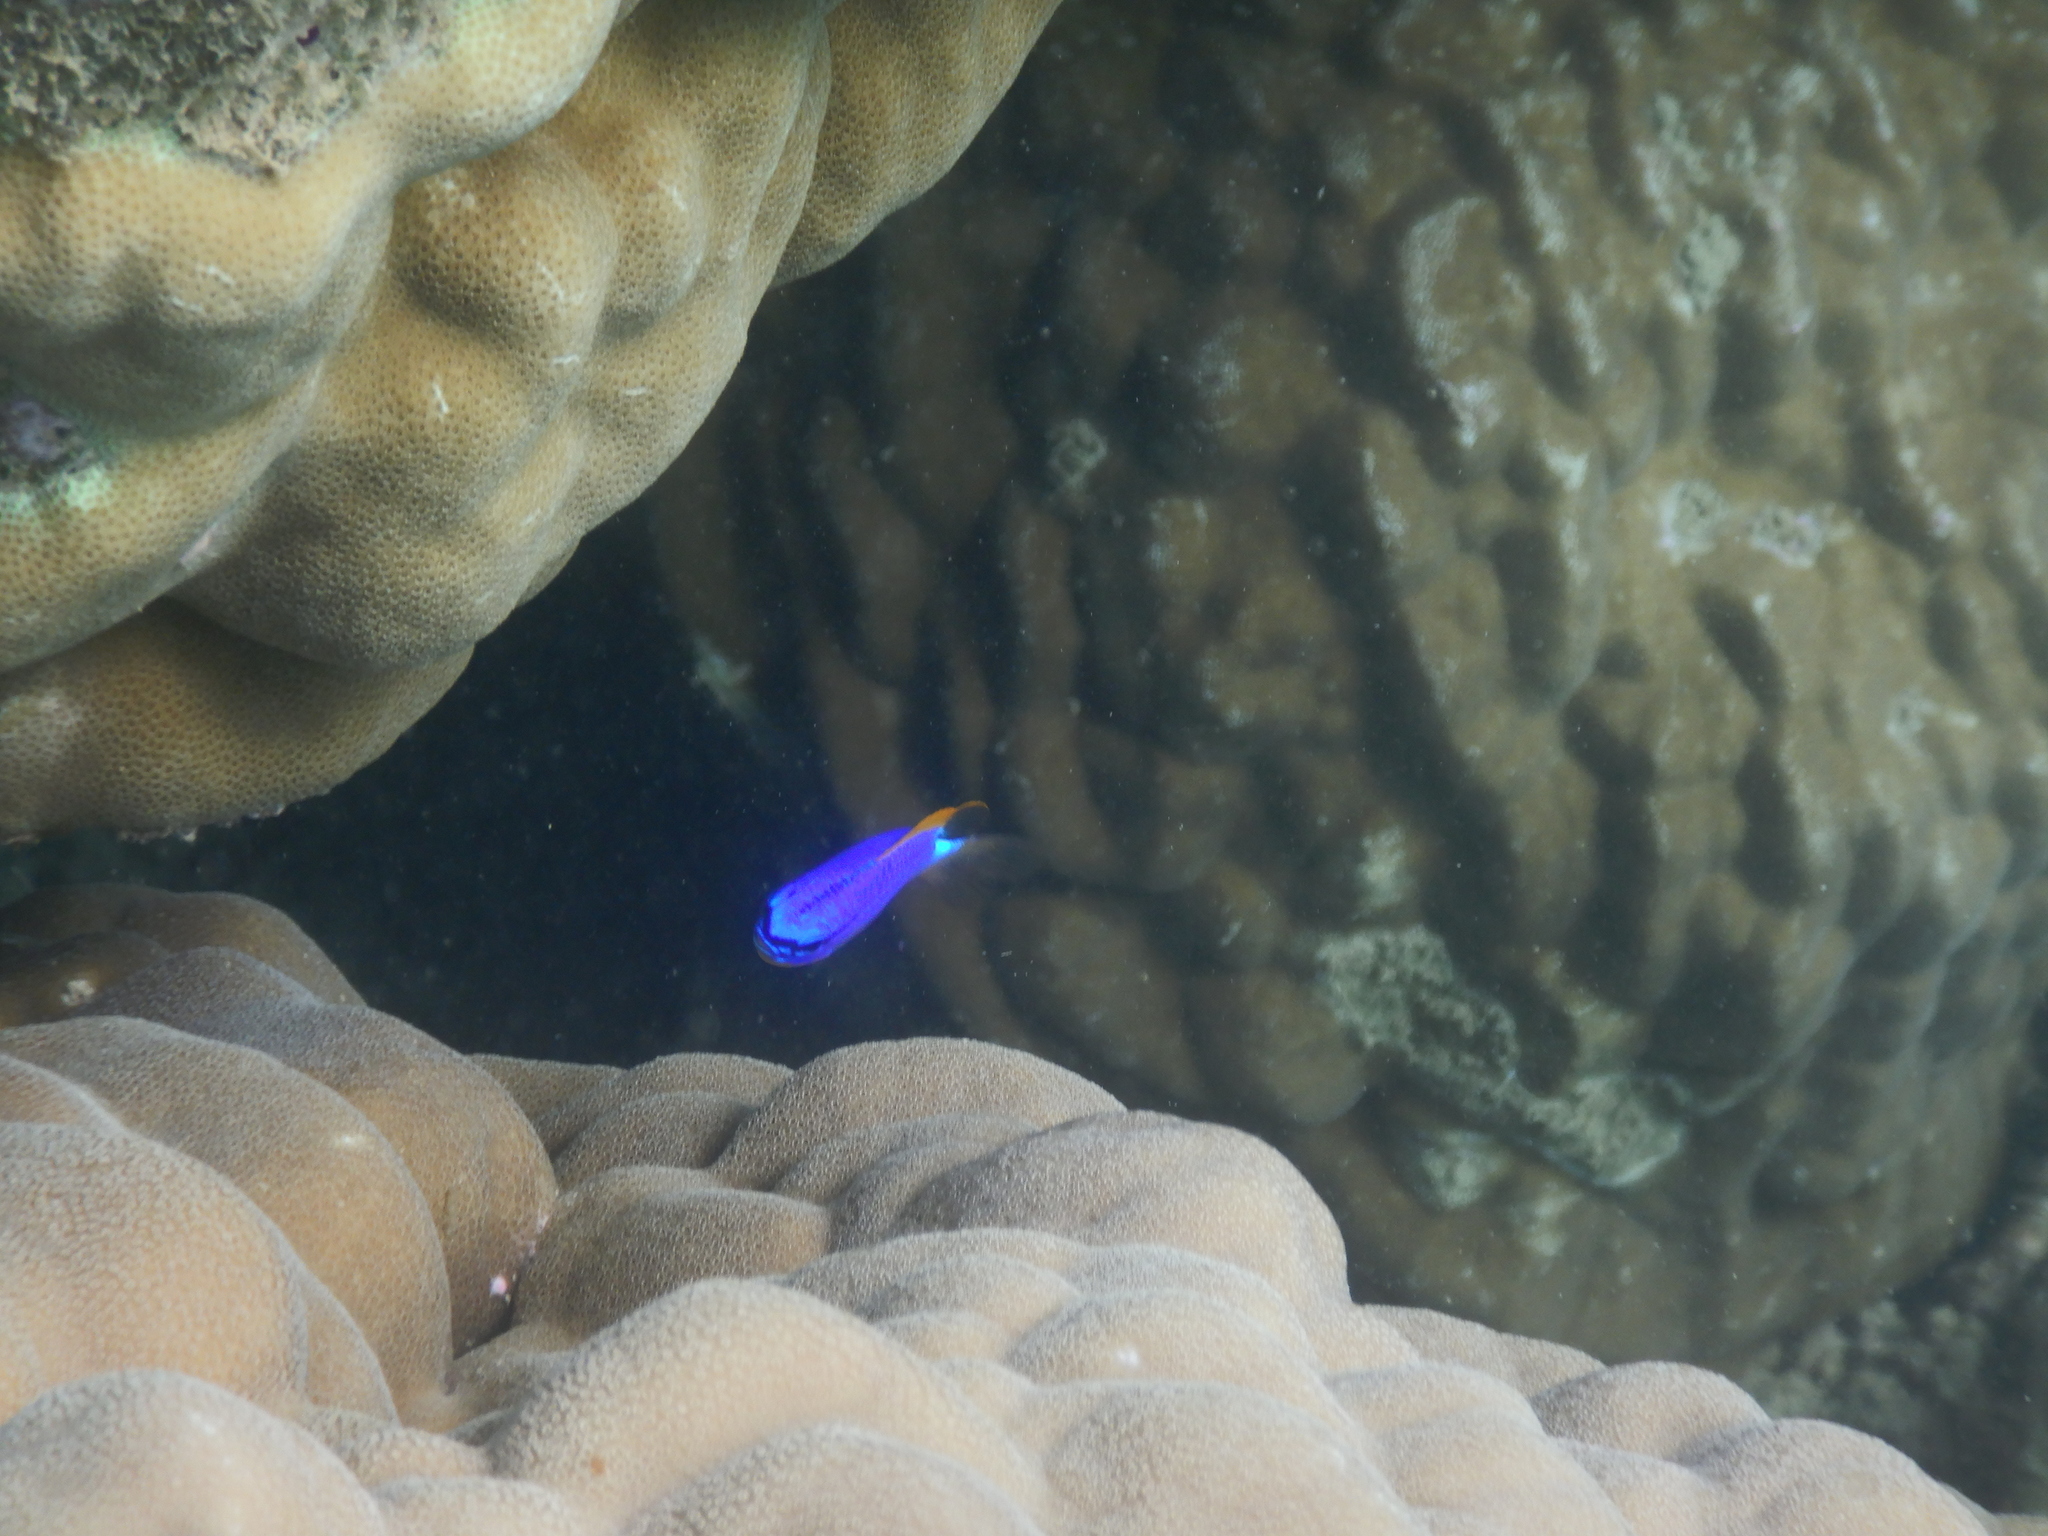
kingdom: Animalia
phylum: Chordata
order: Perciformes
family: Pomacentridae
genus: Chrysiptera
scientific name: Chrysiptera taupou
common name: Fiji damsel
